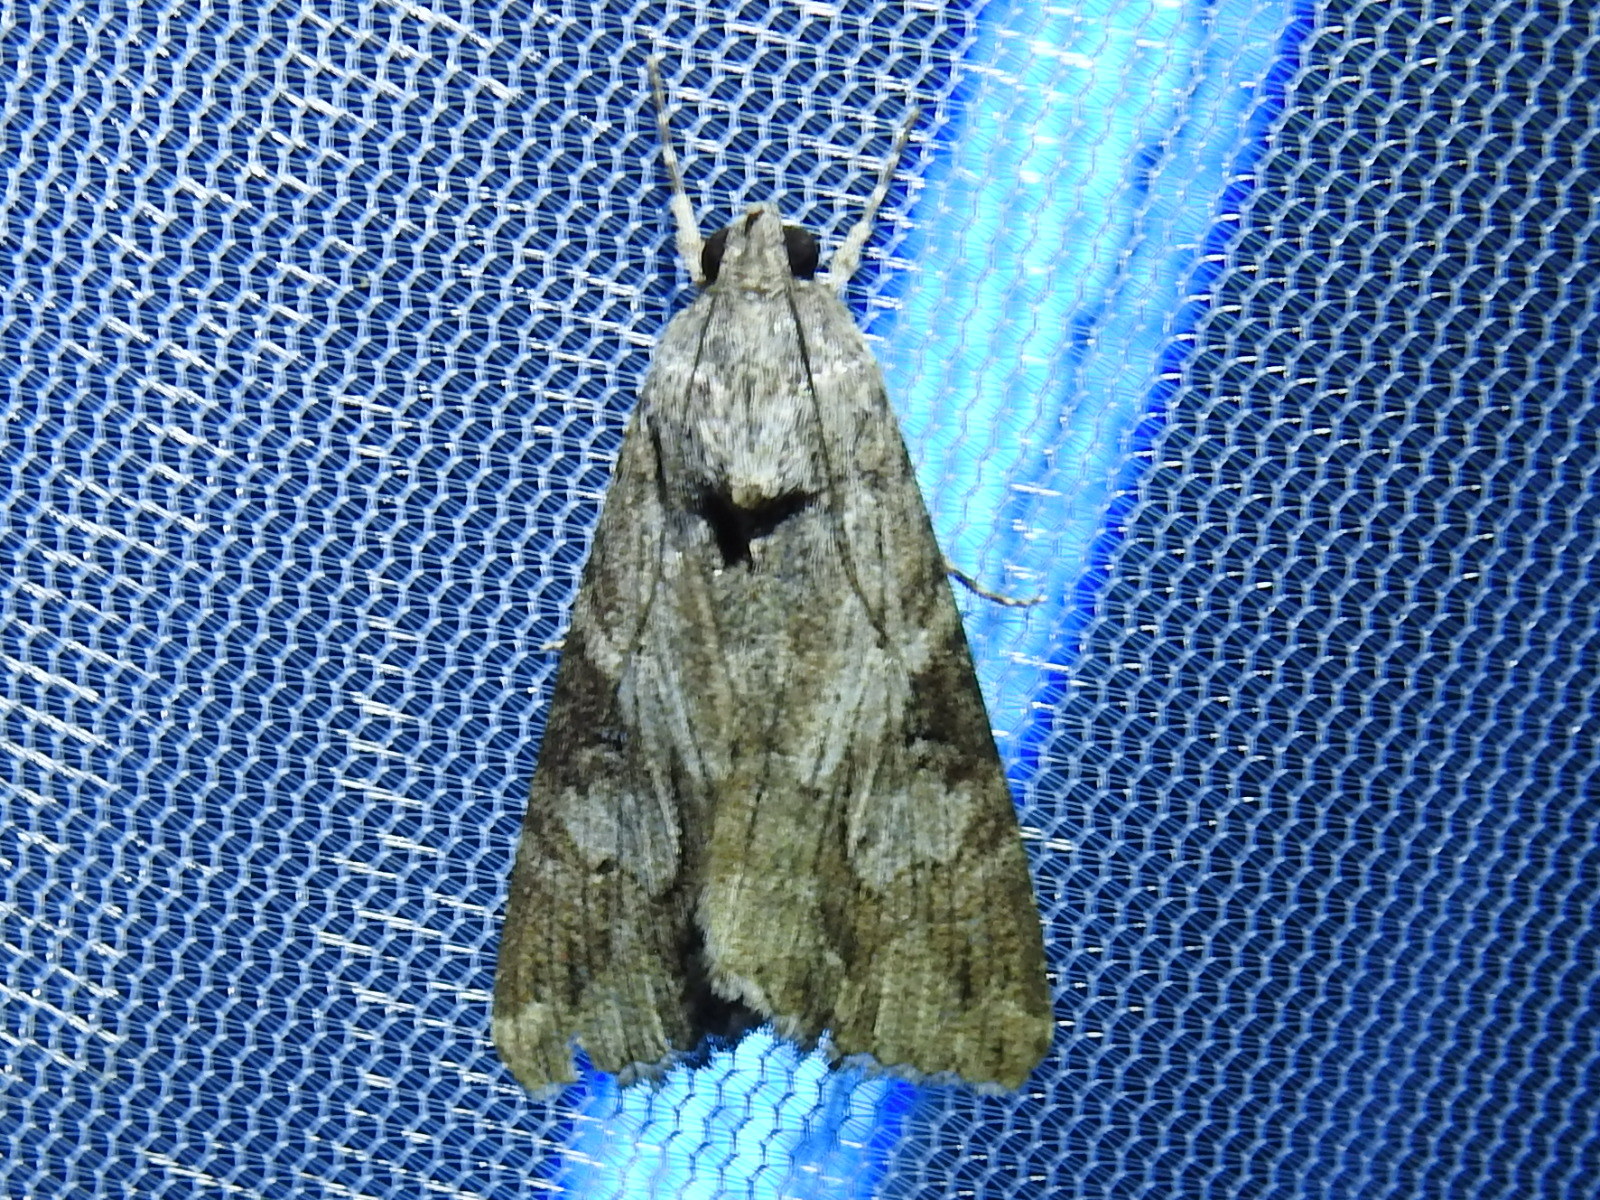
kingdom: Animalia
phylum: Arthropoda
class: Insecta
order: Lepidoptera
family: Erebidae
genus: Melipotis
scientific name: Melipotis jucunda
